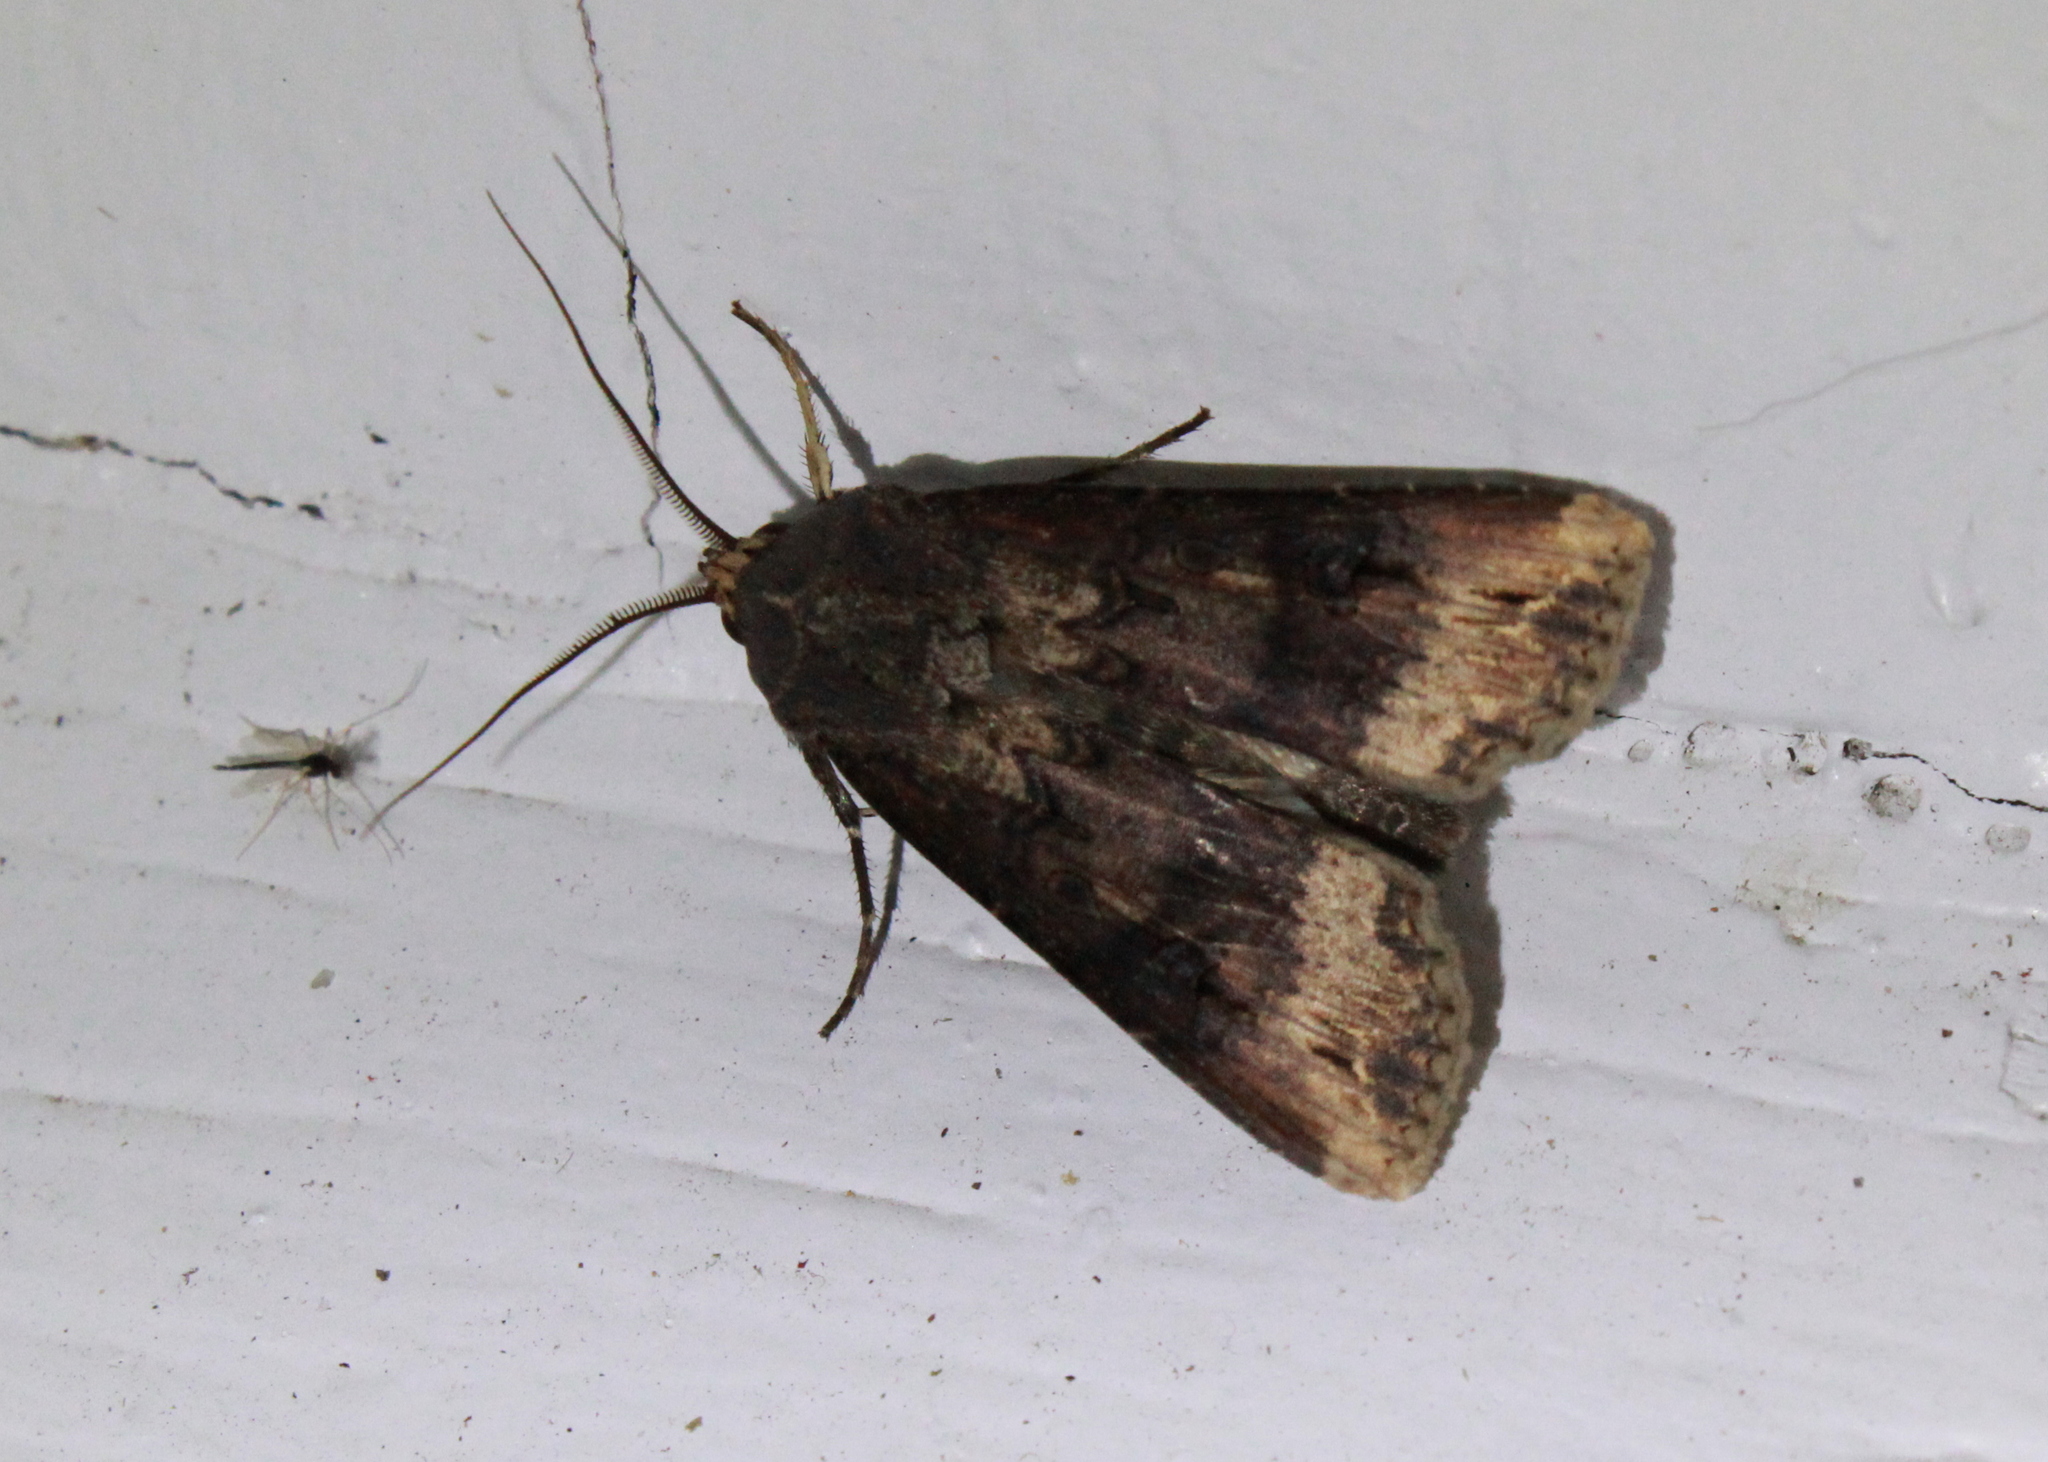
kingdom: Animalia
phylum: Arthropoda
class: Insecta
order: Lepidoptera
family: Noctuidae
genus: Agrotis
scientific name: Agrotis ipsilon
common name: Dark sword-grass
